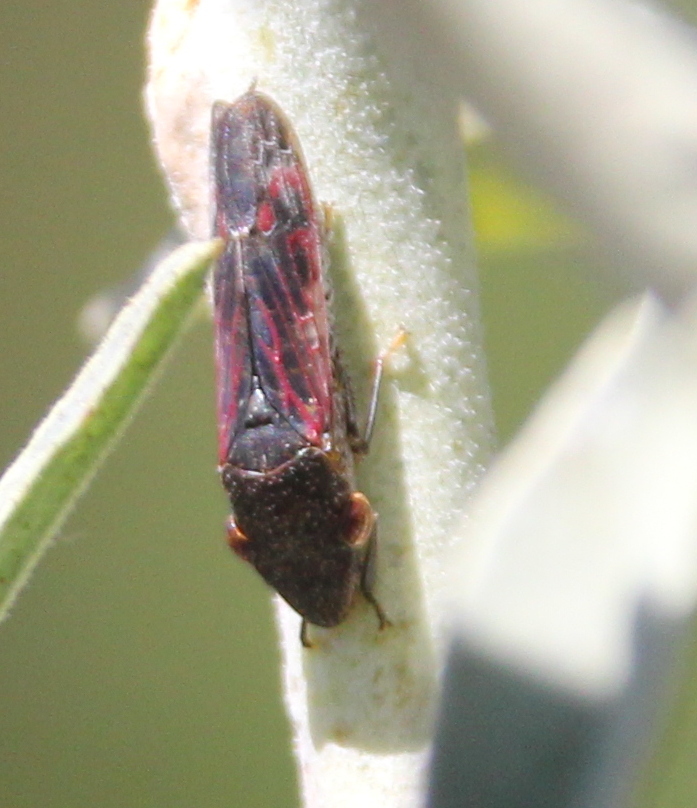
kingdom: Animalia
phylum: Arthropoda
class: Insecta
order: Hemiptera
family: Cicadellidae
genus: Homalodisca
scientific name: Homalodisca vitripennis
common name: Glassy-winged sharpshooter
